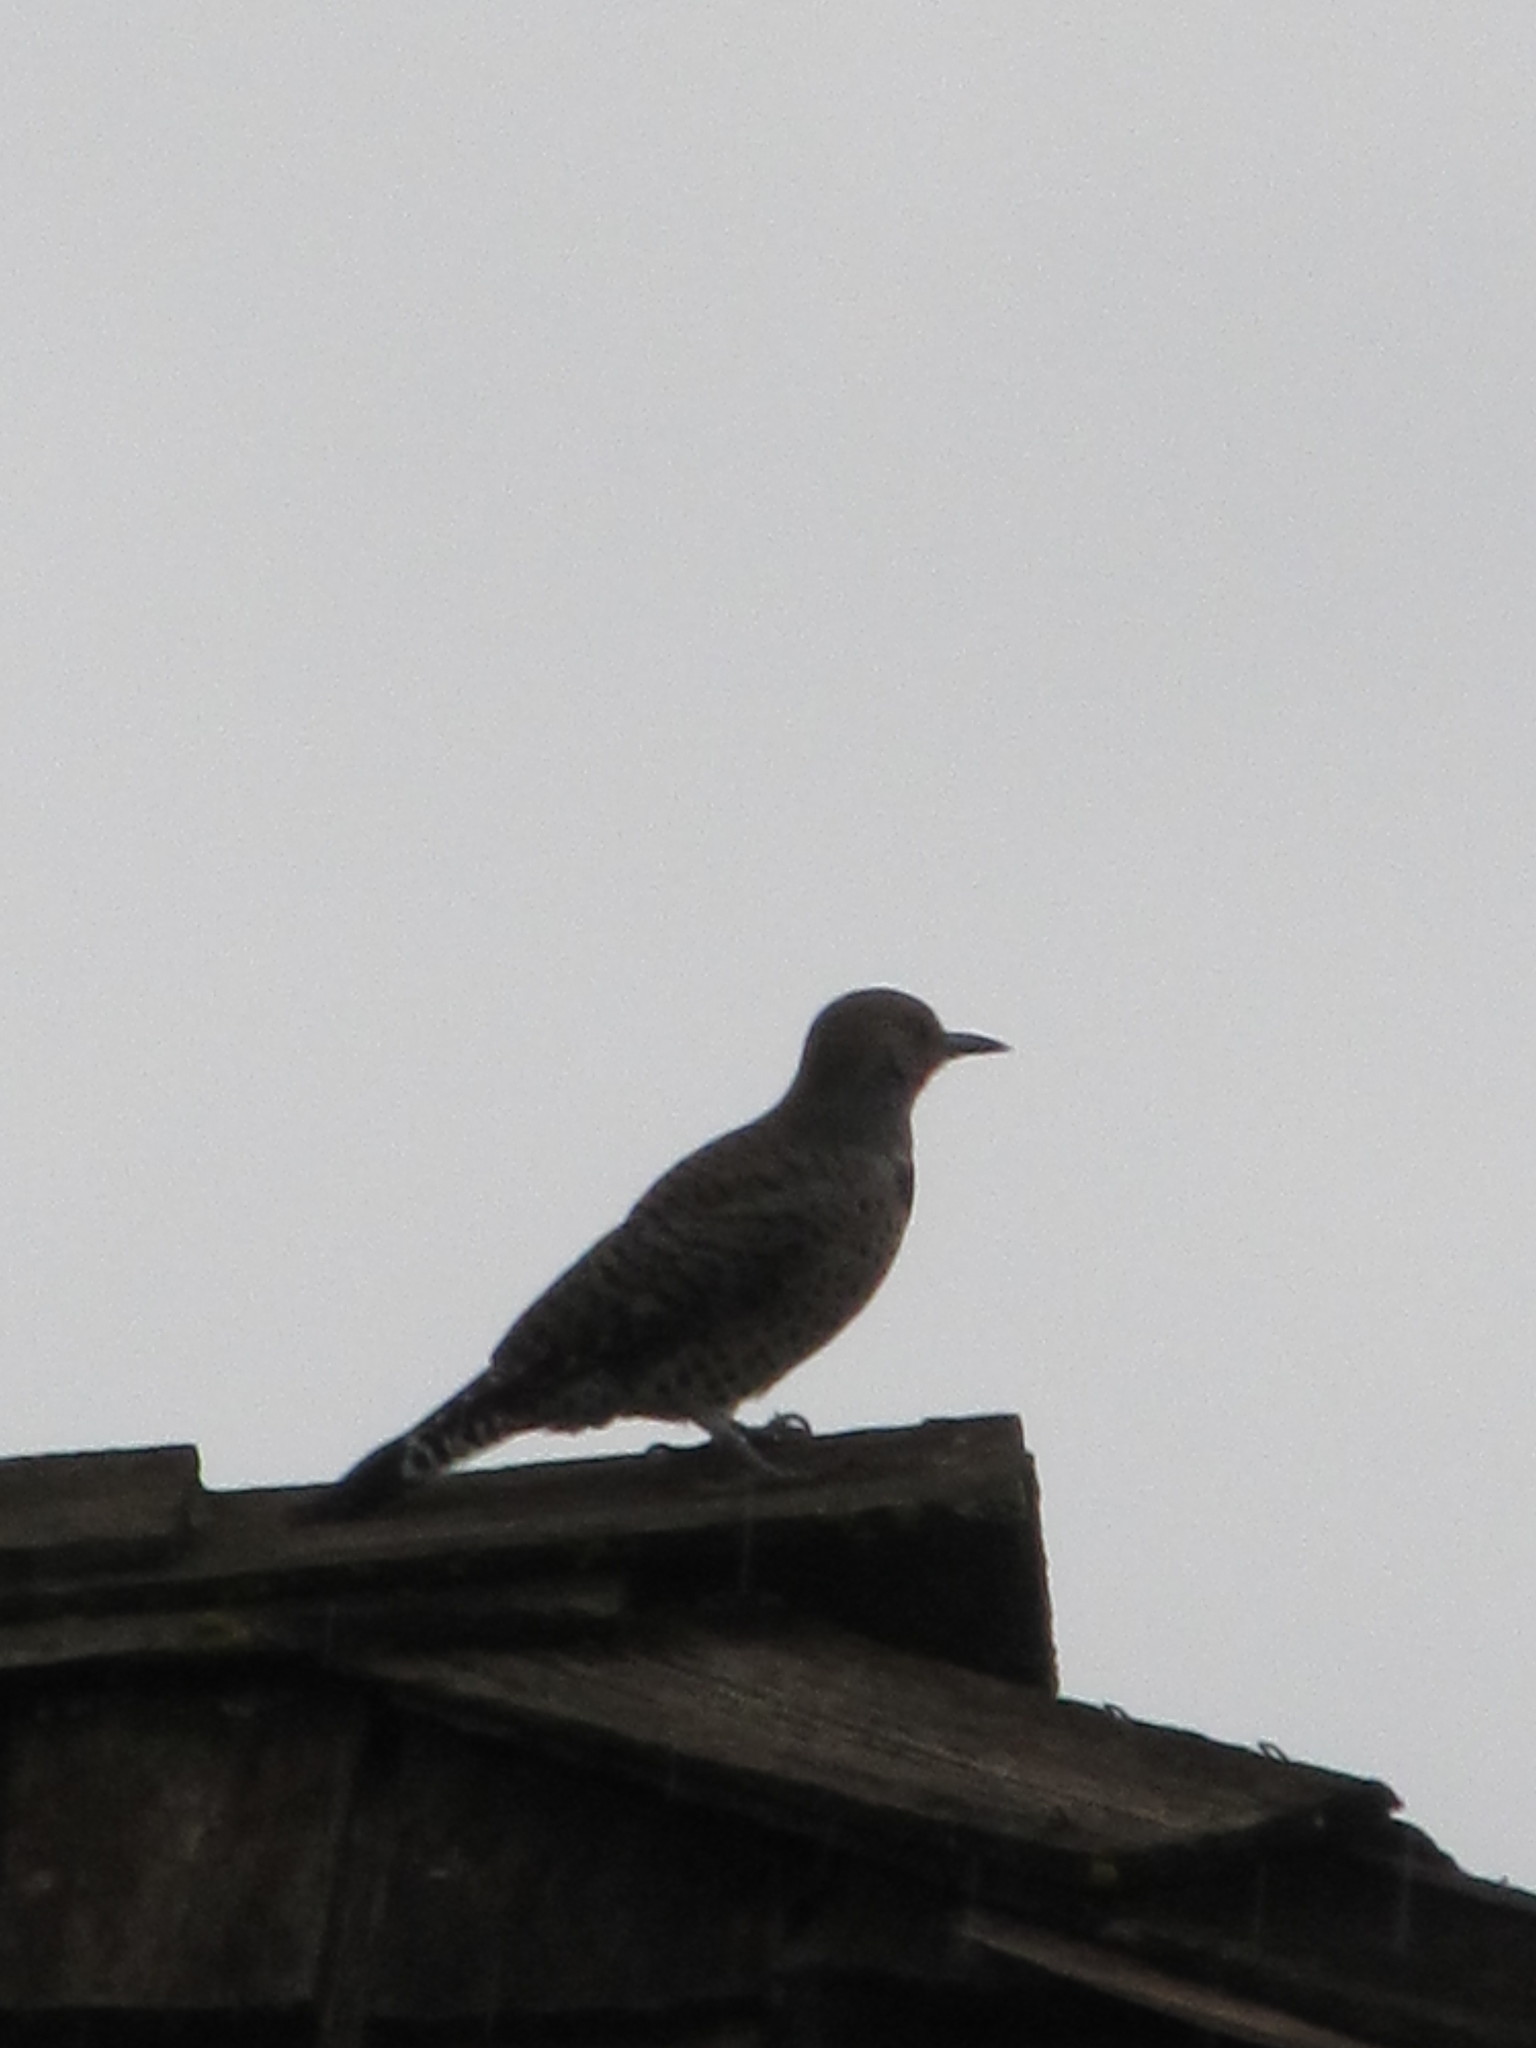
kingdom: Animalia
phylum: Chordata
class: Aves
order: Piciformes
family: Picidae
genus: Colaptes
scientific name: Colaptes auratus
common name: Northern flicker
